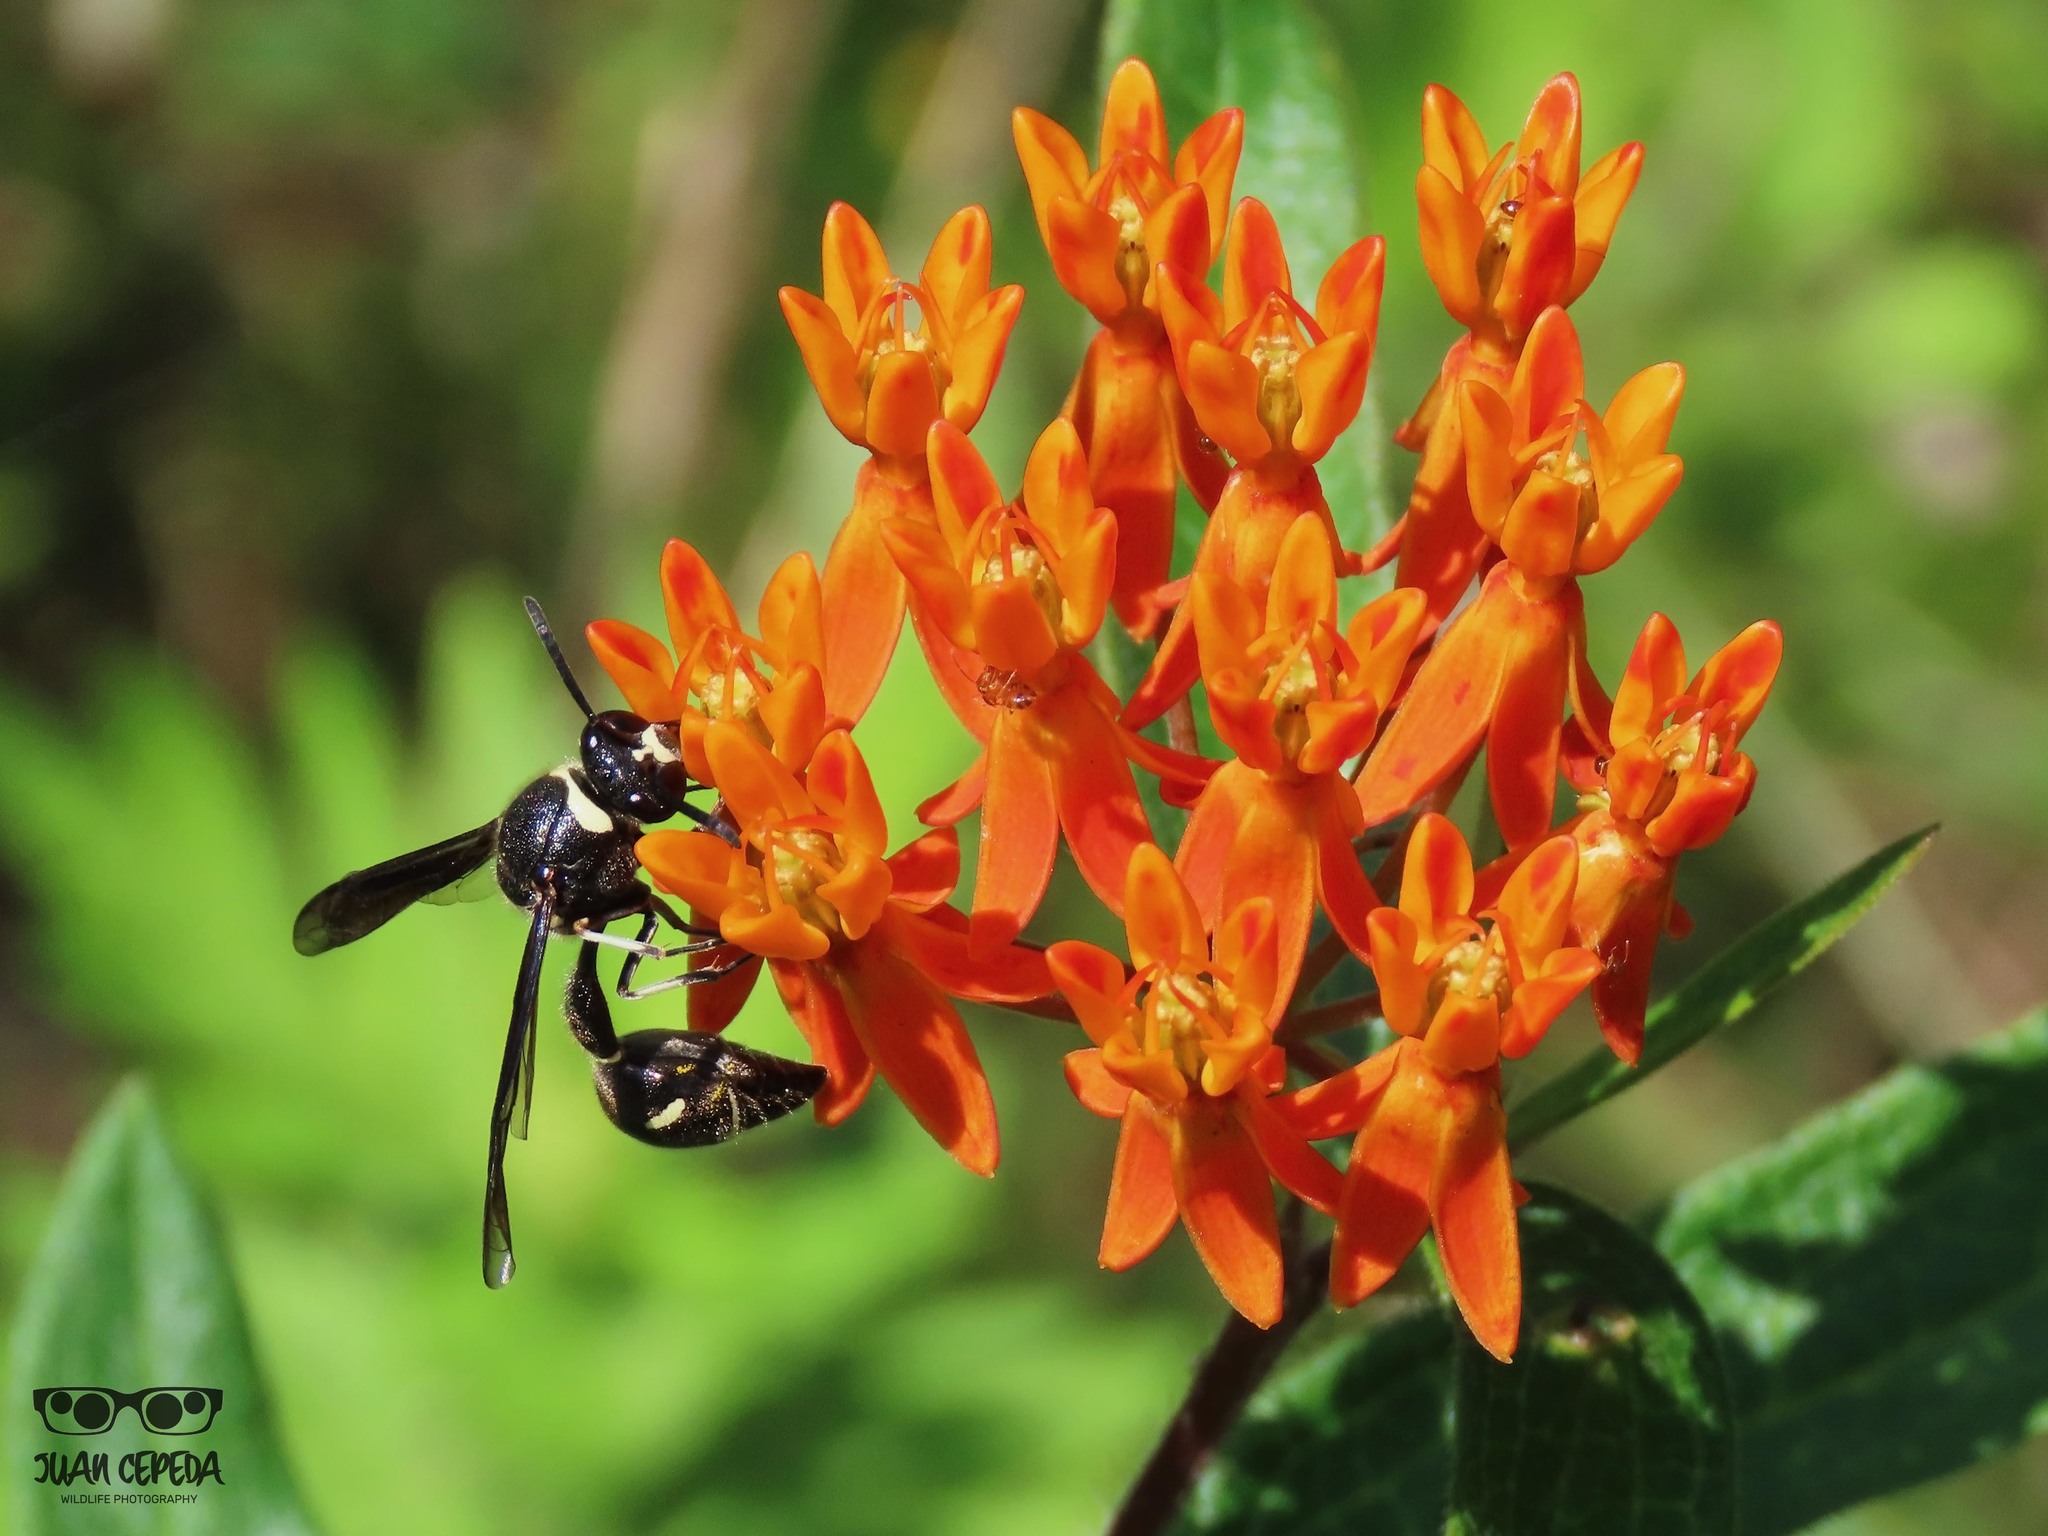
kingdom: Animalia
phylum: Arthropoda
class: Insecta
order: Hymenoptera
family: Vespidae
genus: Eumenes
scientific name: Eumenes fraternus
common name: Fraternal potter wasp
